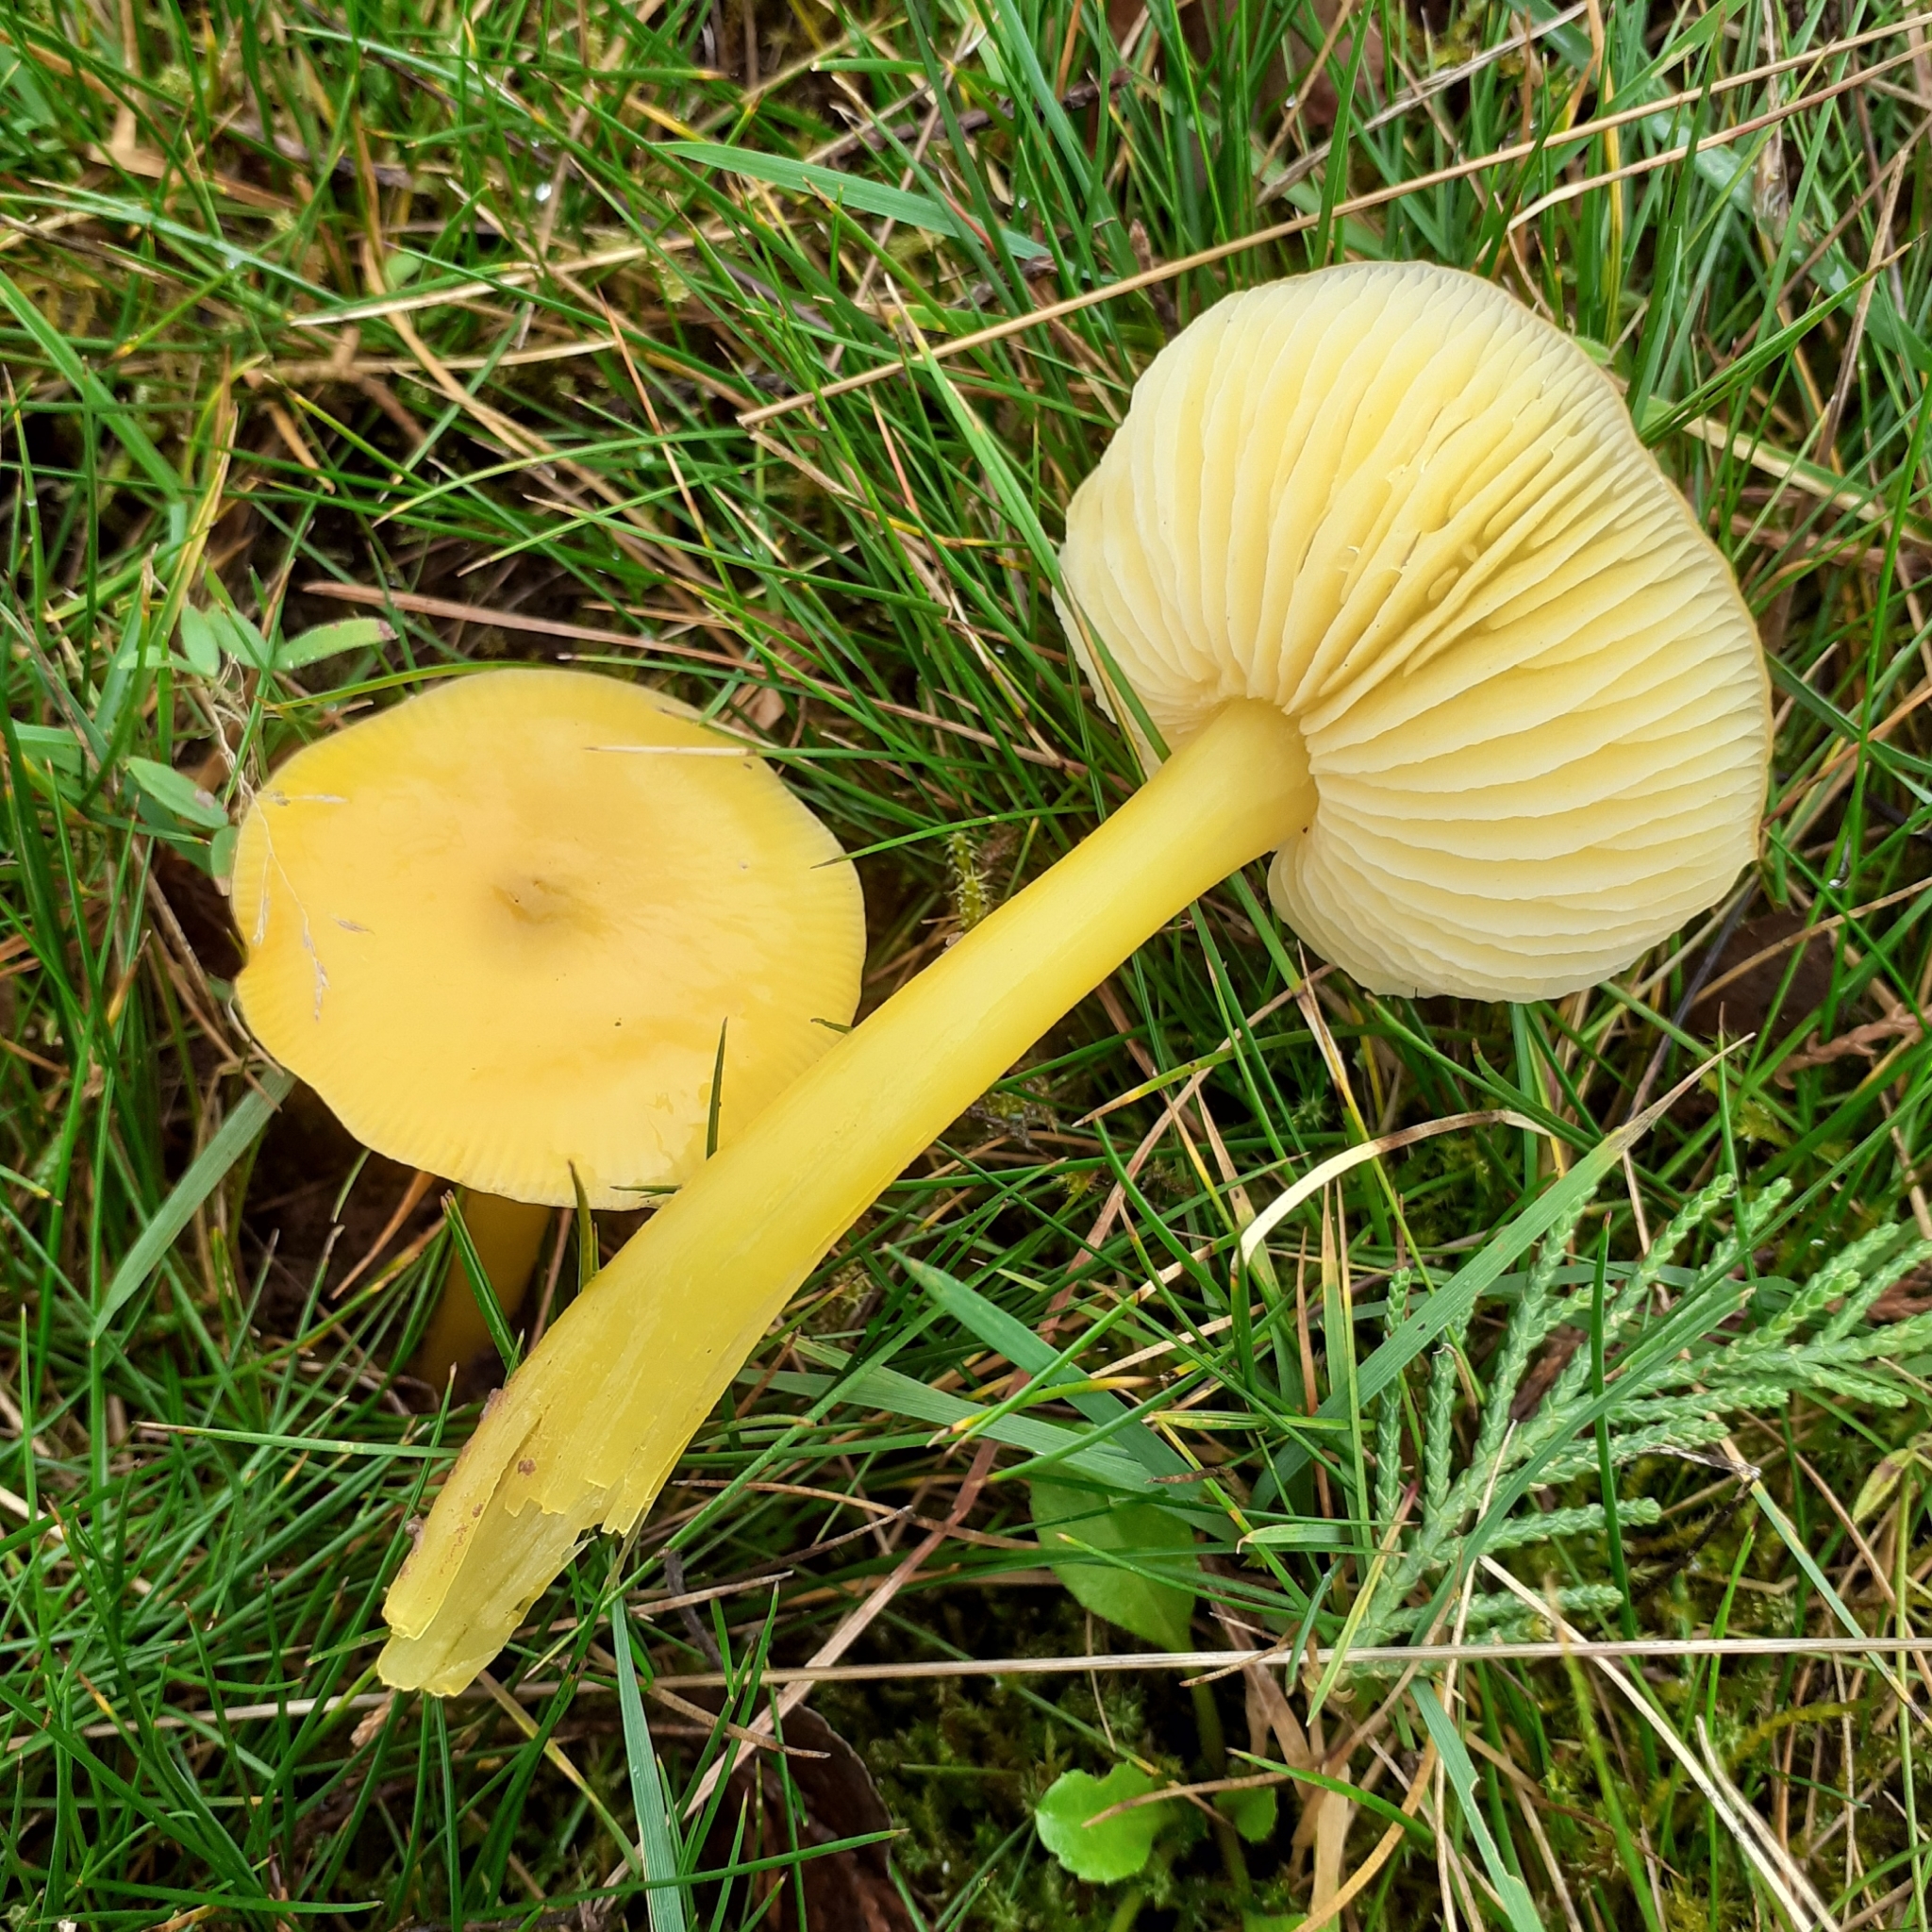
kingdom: Fungi
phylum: Basidiomycota
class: Agaricomycetes
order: Agaricales
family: Hygrophoraceae
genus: Hygrocybe
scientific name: Hygrocybe chlorophana
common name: Golden waxcap
